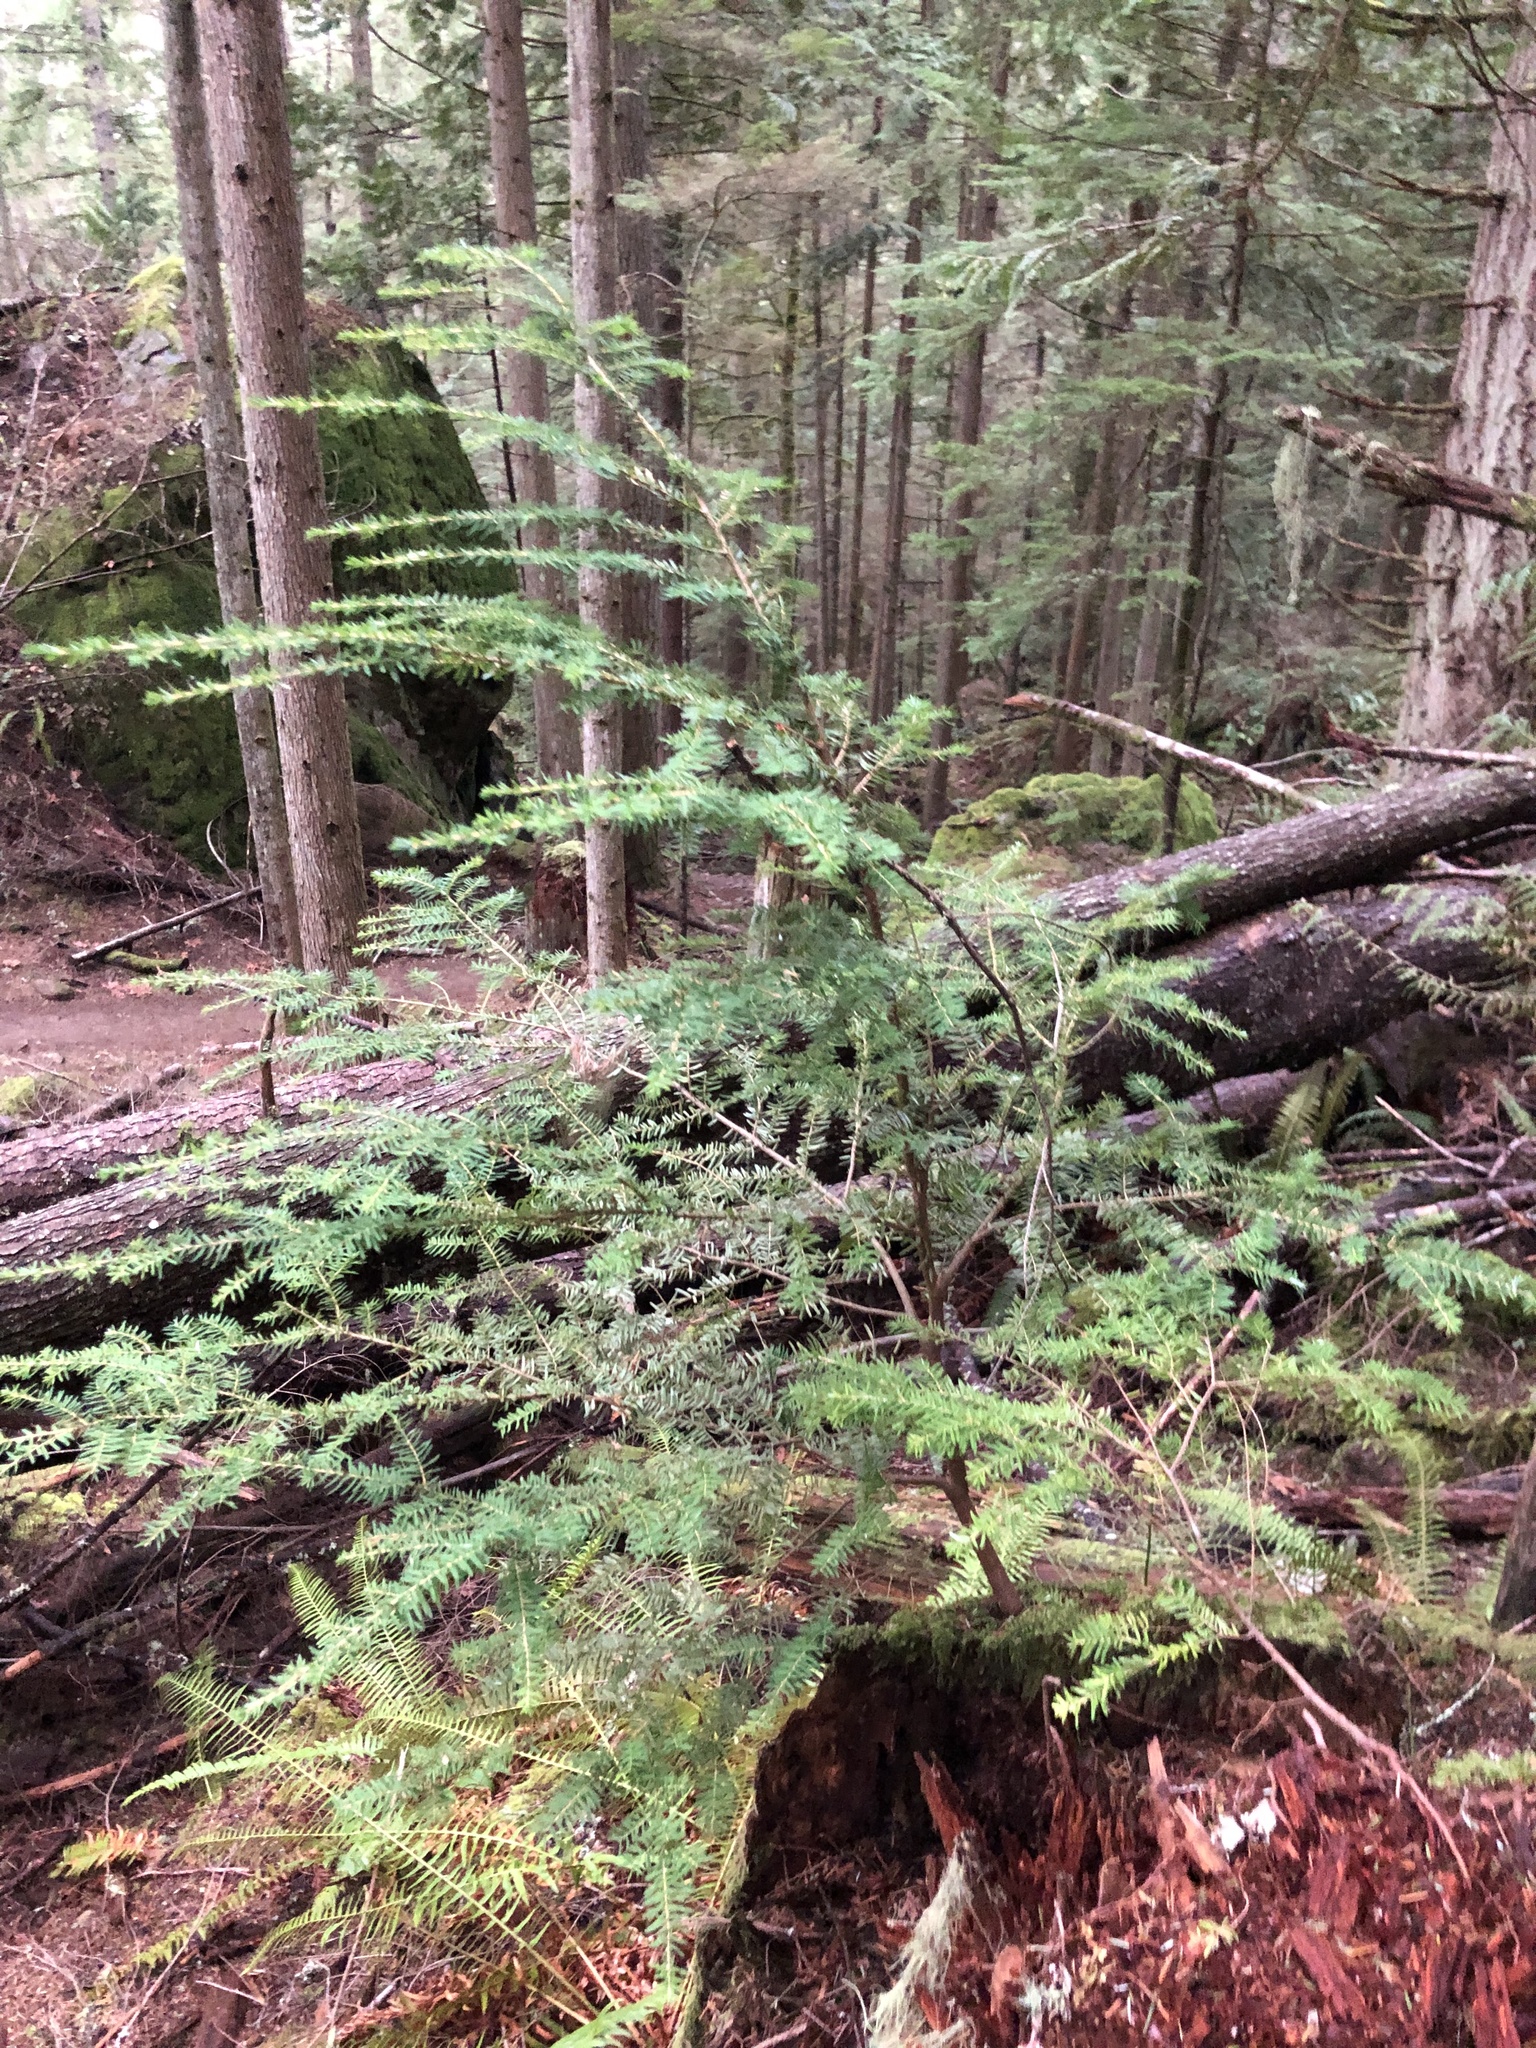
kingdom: Plantae
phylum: Tracheophyta
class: Pinopsida
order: Pinales
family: Pinaceae
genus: Tsuga
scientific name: Tsuga heterophylla
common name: Western hemlock
